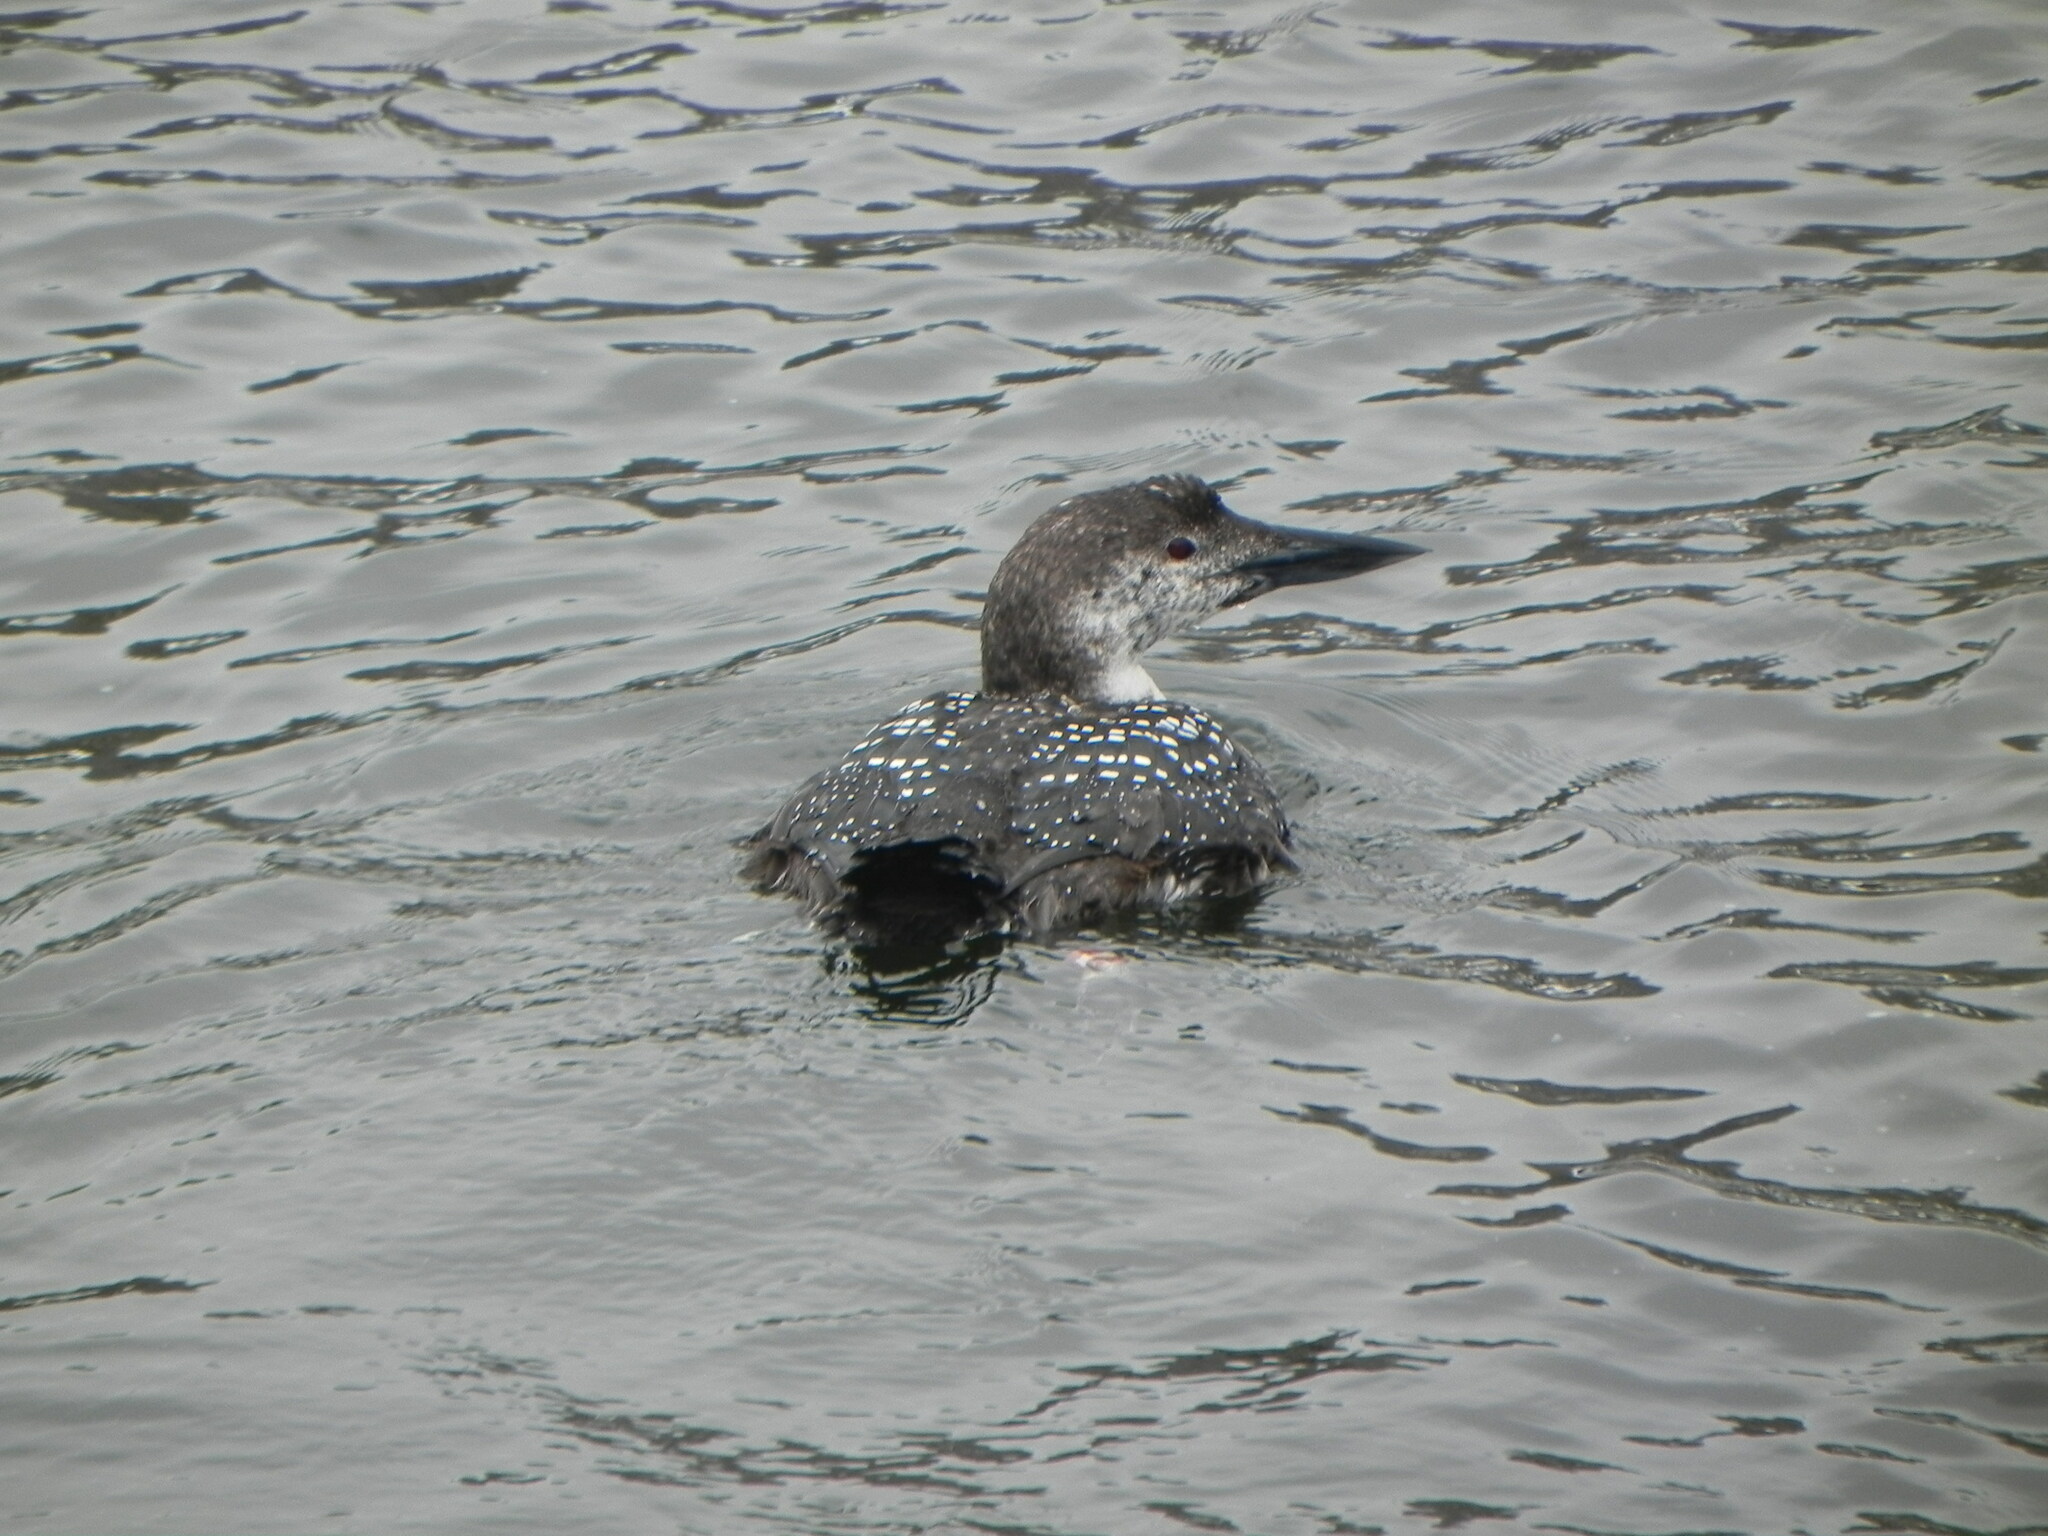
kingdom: Animalia
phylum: Chordata
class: Aves
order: Gaviiformes
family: Gaviidae
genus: Gavia
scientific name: Gavia immer
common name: Common loon
